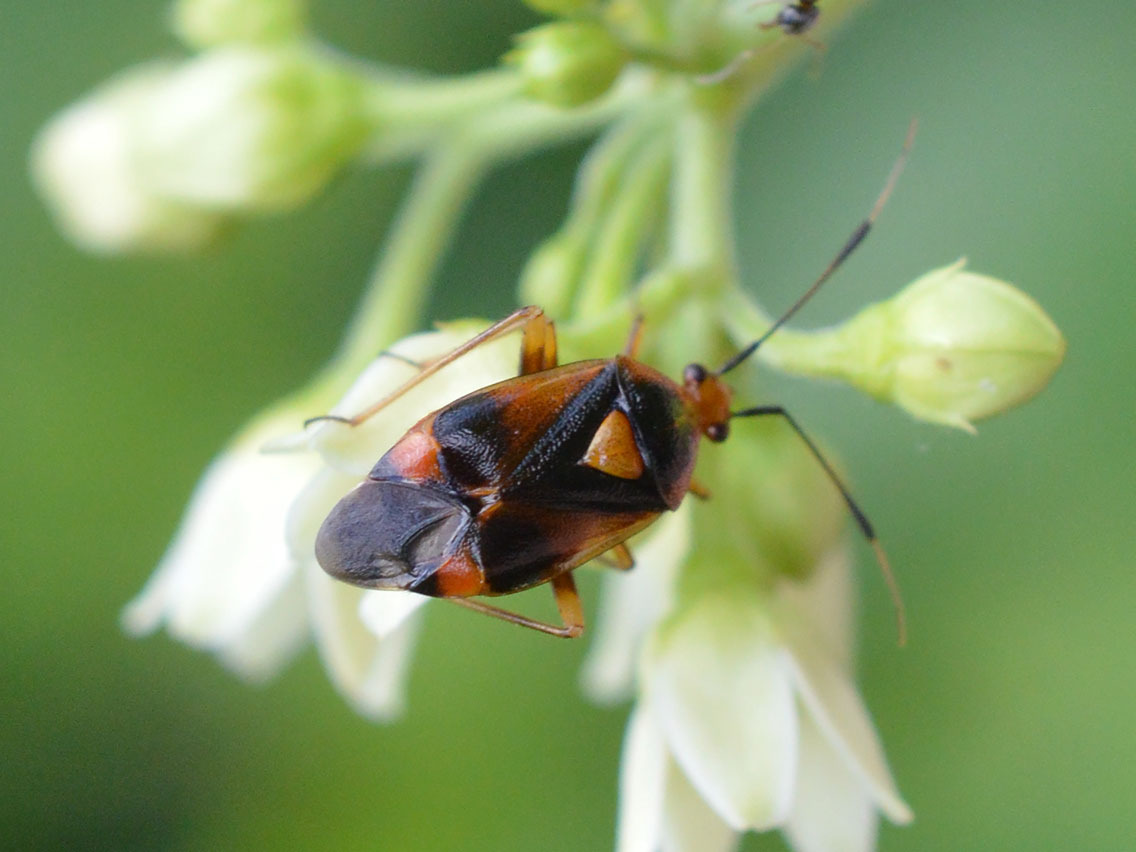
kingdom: Animalia
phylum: Arthropoda
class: Insecta
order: Hemiptera
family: Miridae
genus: Deraeocoris
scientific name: Deraeocoris ruber
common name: Plant bug
